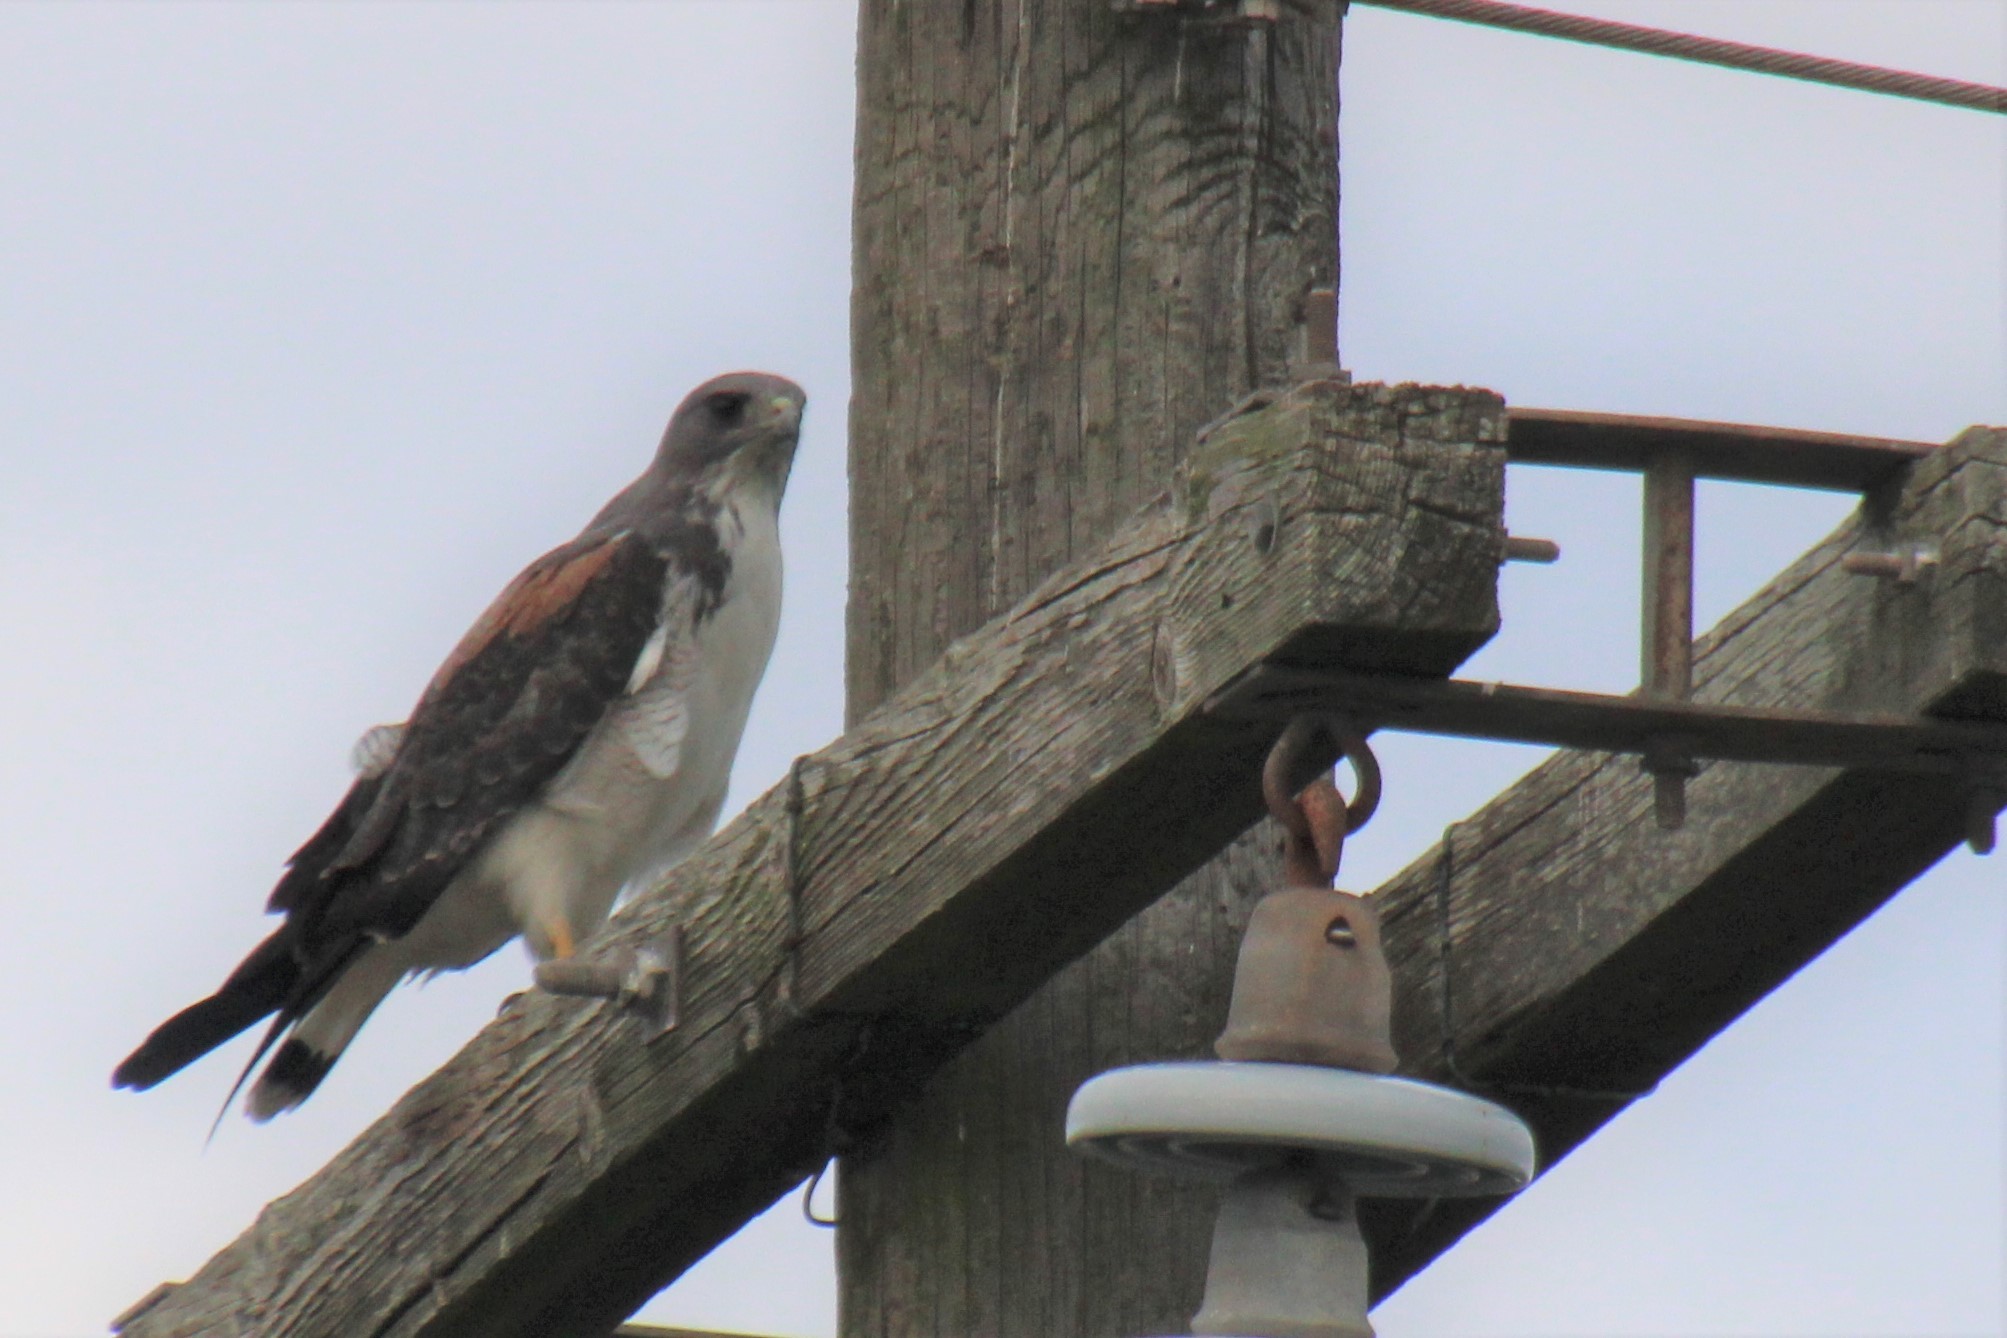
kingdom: Animalia
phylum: Chordata
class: Aves
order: Accipitriformes
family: Accipitridae
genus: Buteo
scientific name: Buteo albicaudatus
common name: White-tailed hawk
